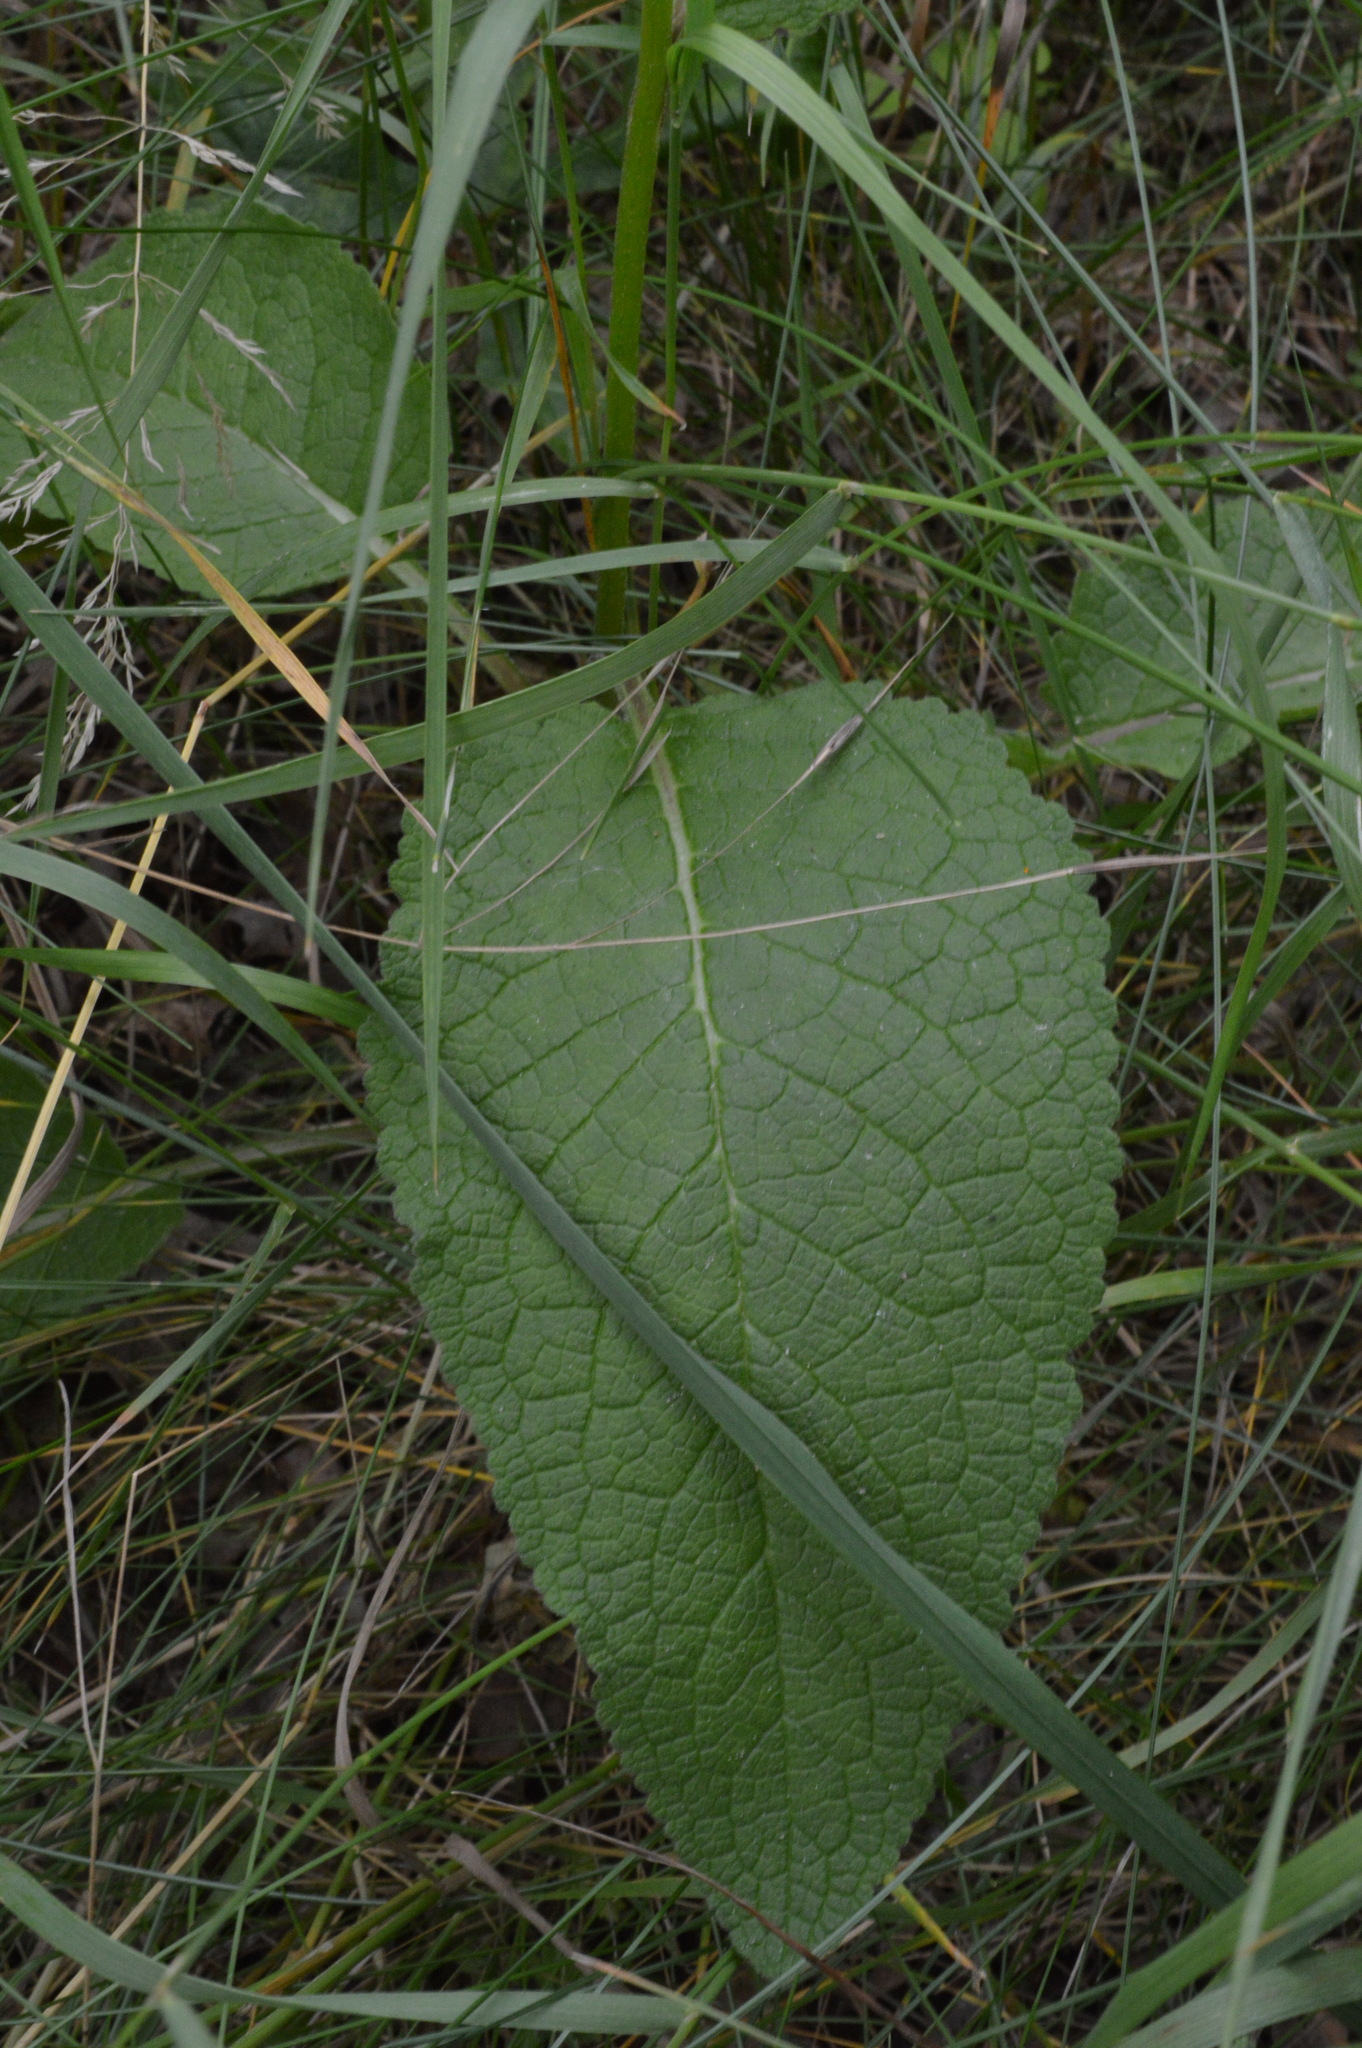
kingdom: Plantae
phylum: Tracheophyta
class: Magnoliopsida
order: Lamiales
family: Scrophulariaceae
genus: Verbascum
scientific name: Verbascum nigrum
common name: Dark mullein
